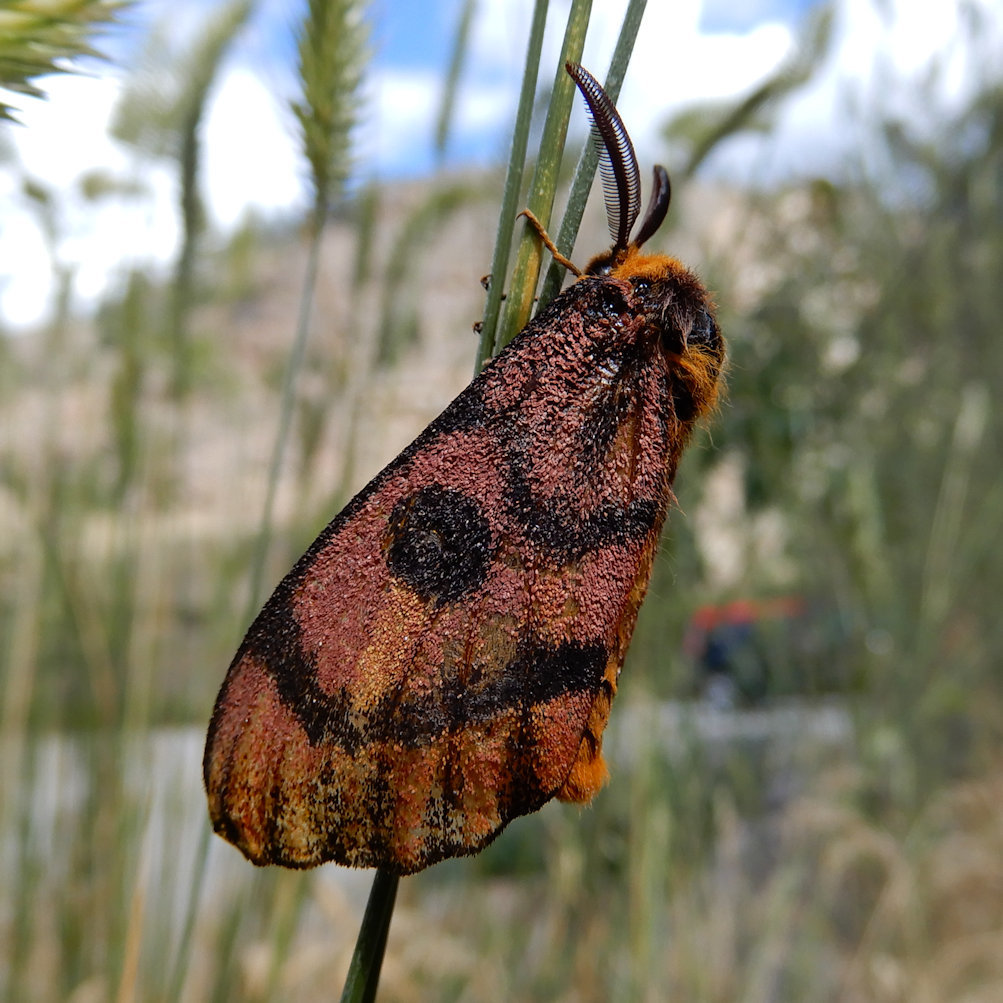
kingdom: Animalia
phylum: Arthropoda
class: Insecta
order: Lepidoptera
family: Saturniidae
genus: Hemileuca
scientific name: Hemileuca eglanterina
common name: Western sheepmoth
